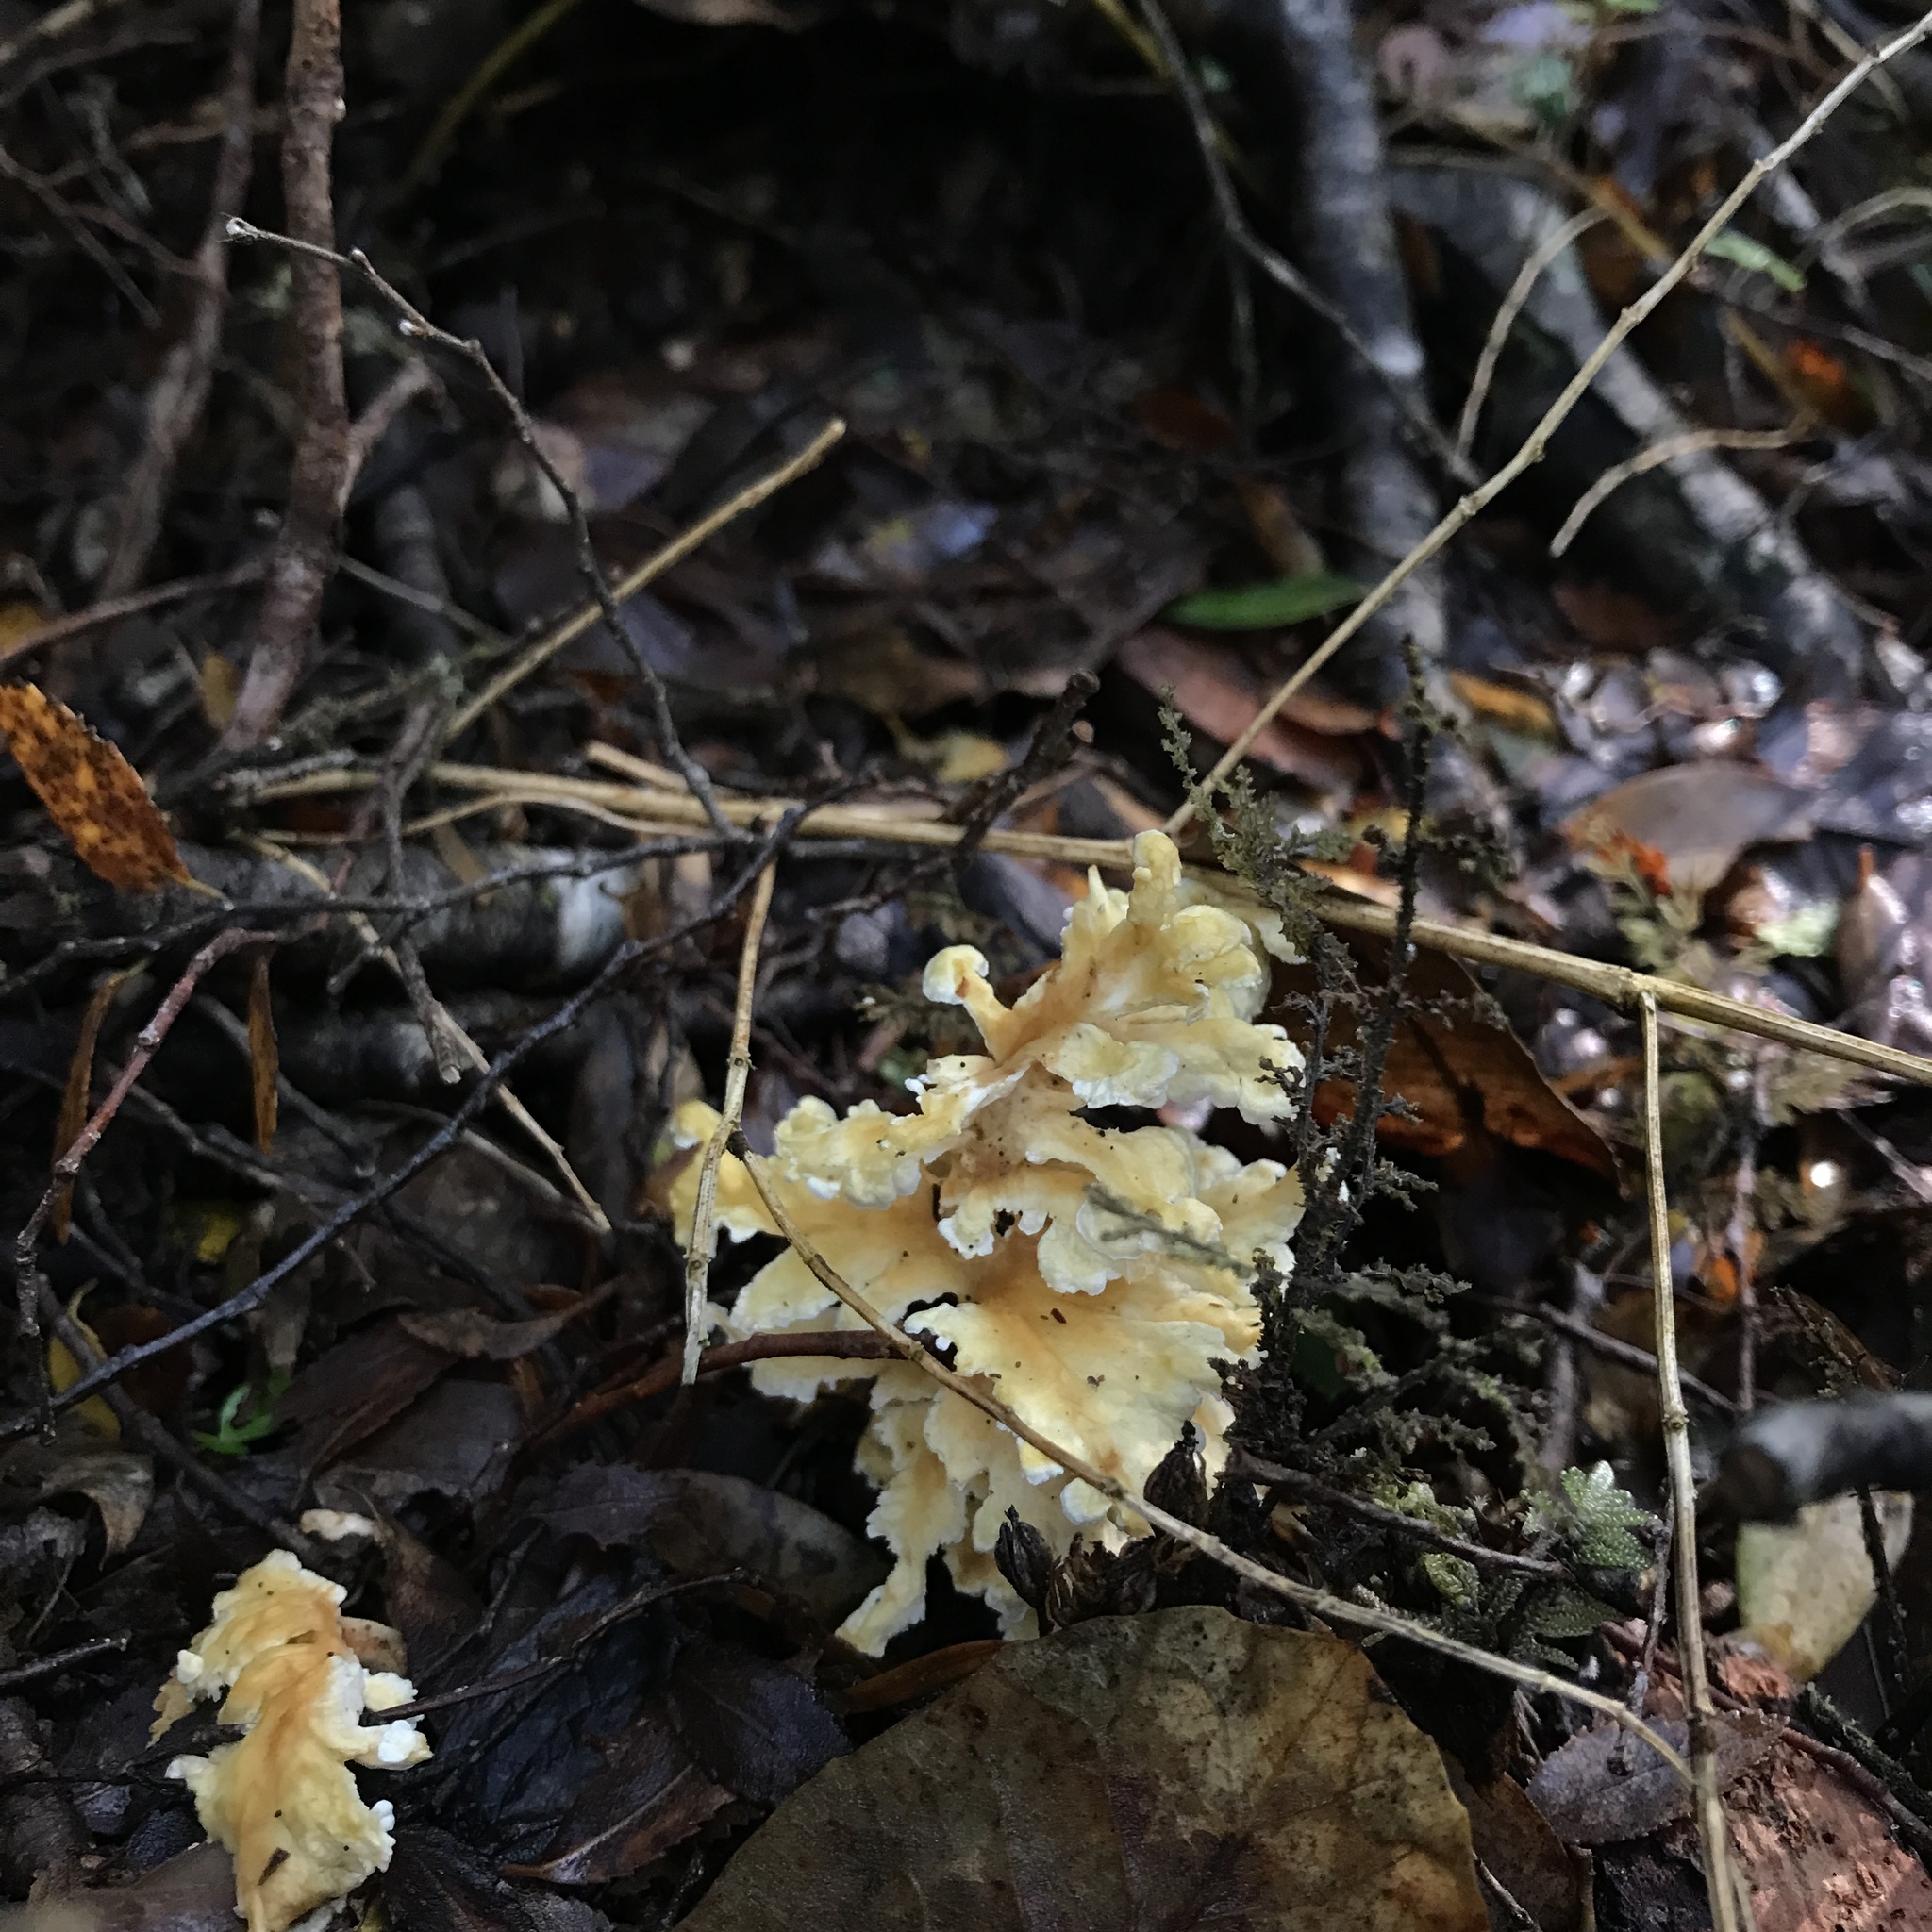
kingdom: Fungi
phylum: Basidiomycota
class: Agaricomycetes
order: Amylocorticiales
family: Amylocorticiaceae
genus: Podoserpula
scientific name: Podoserpula aliweni
